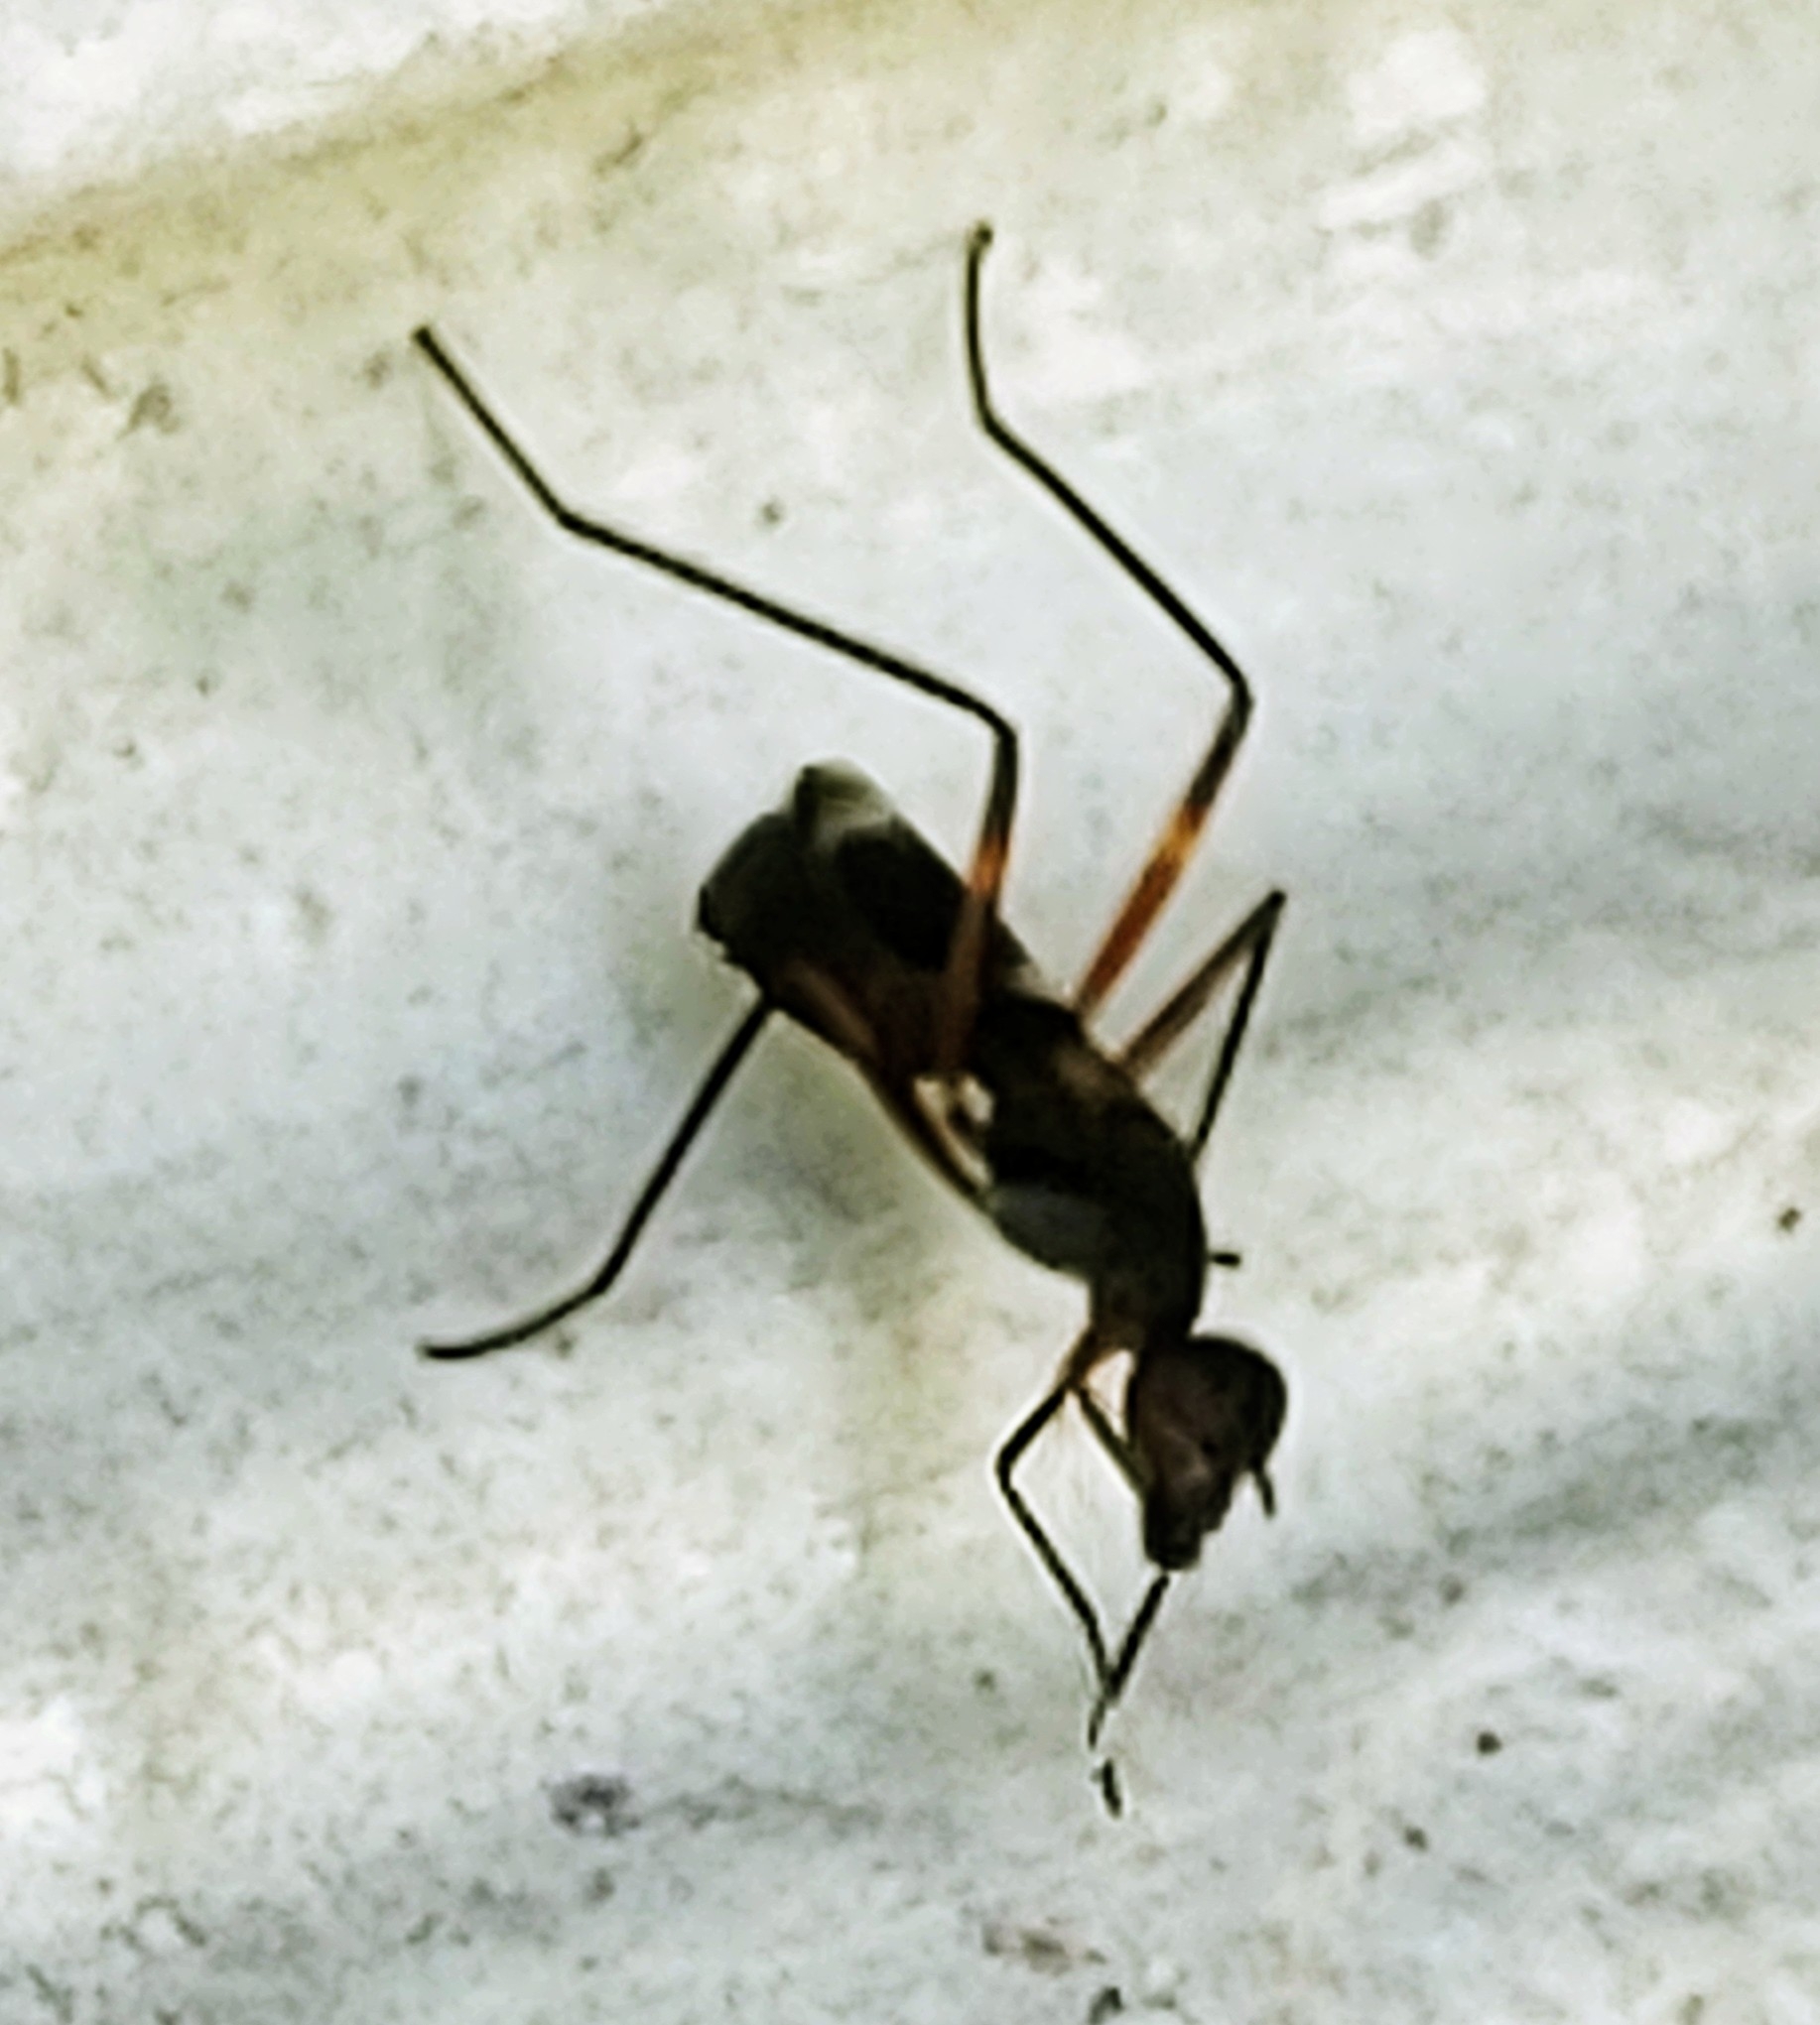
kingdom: Animalia
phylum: Arthropoda
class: Insecta
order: Diptera
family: Micropezidae
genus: Taeniaptera
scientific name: Taeniaptera trivittata
